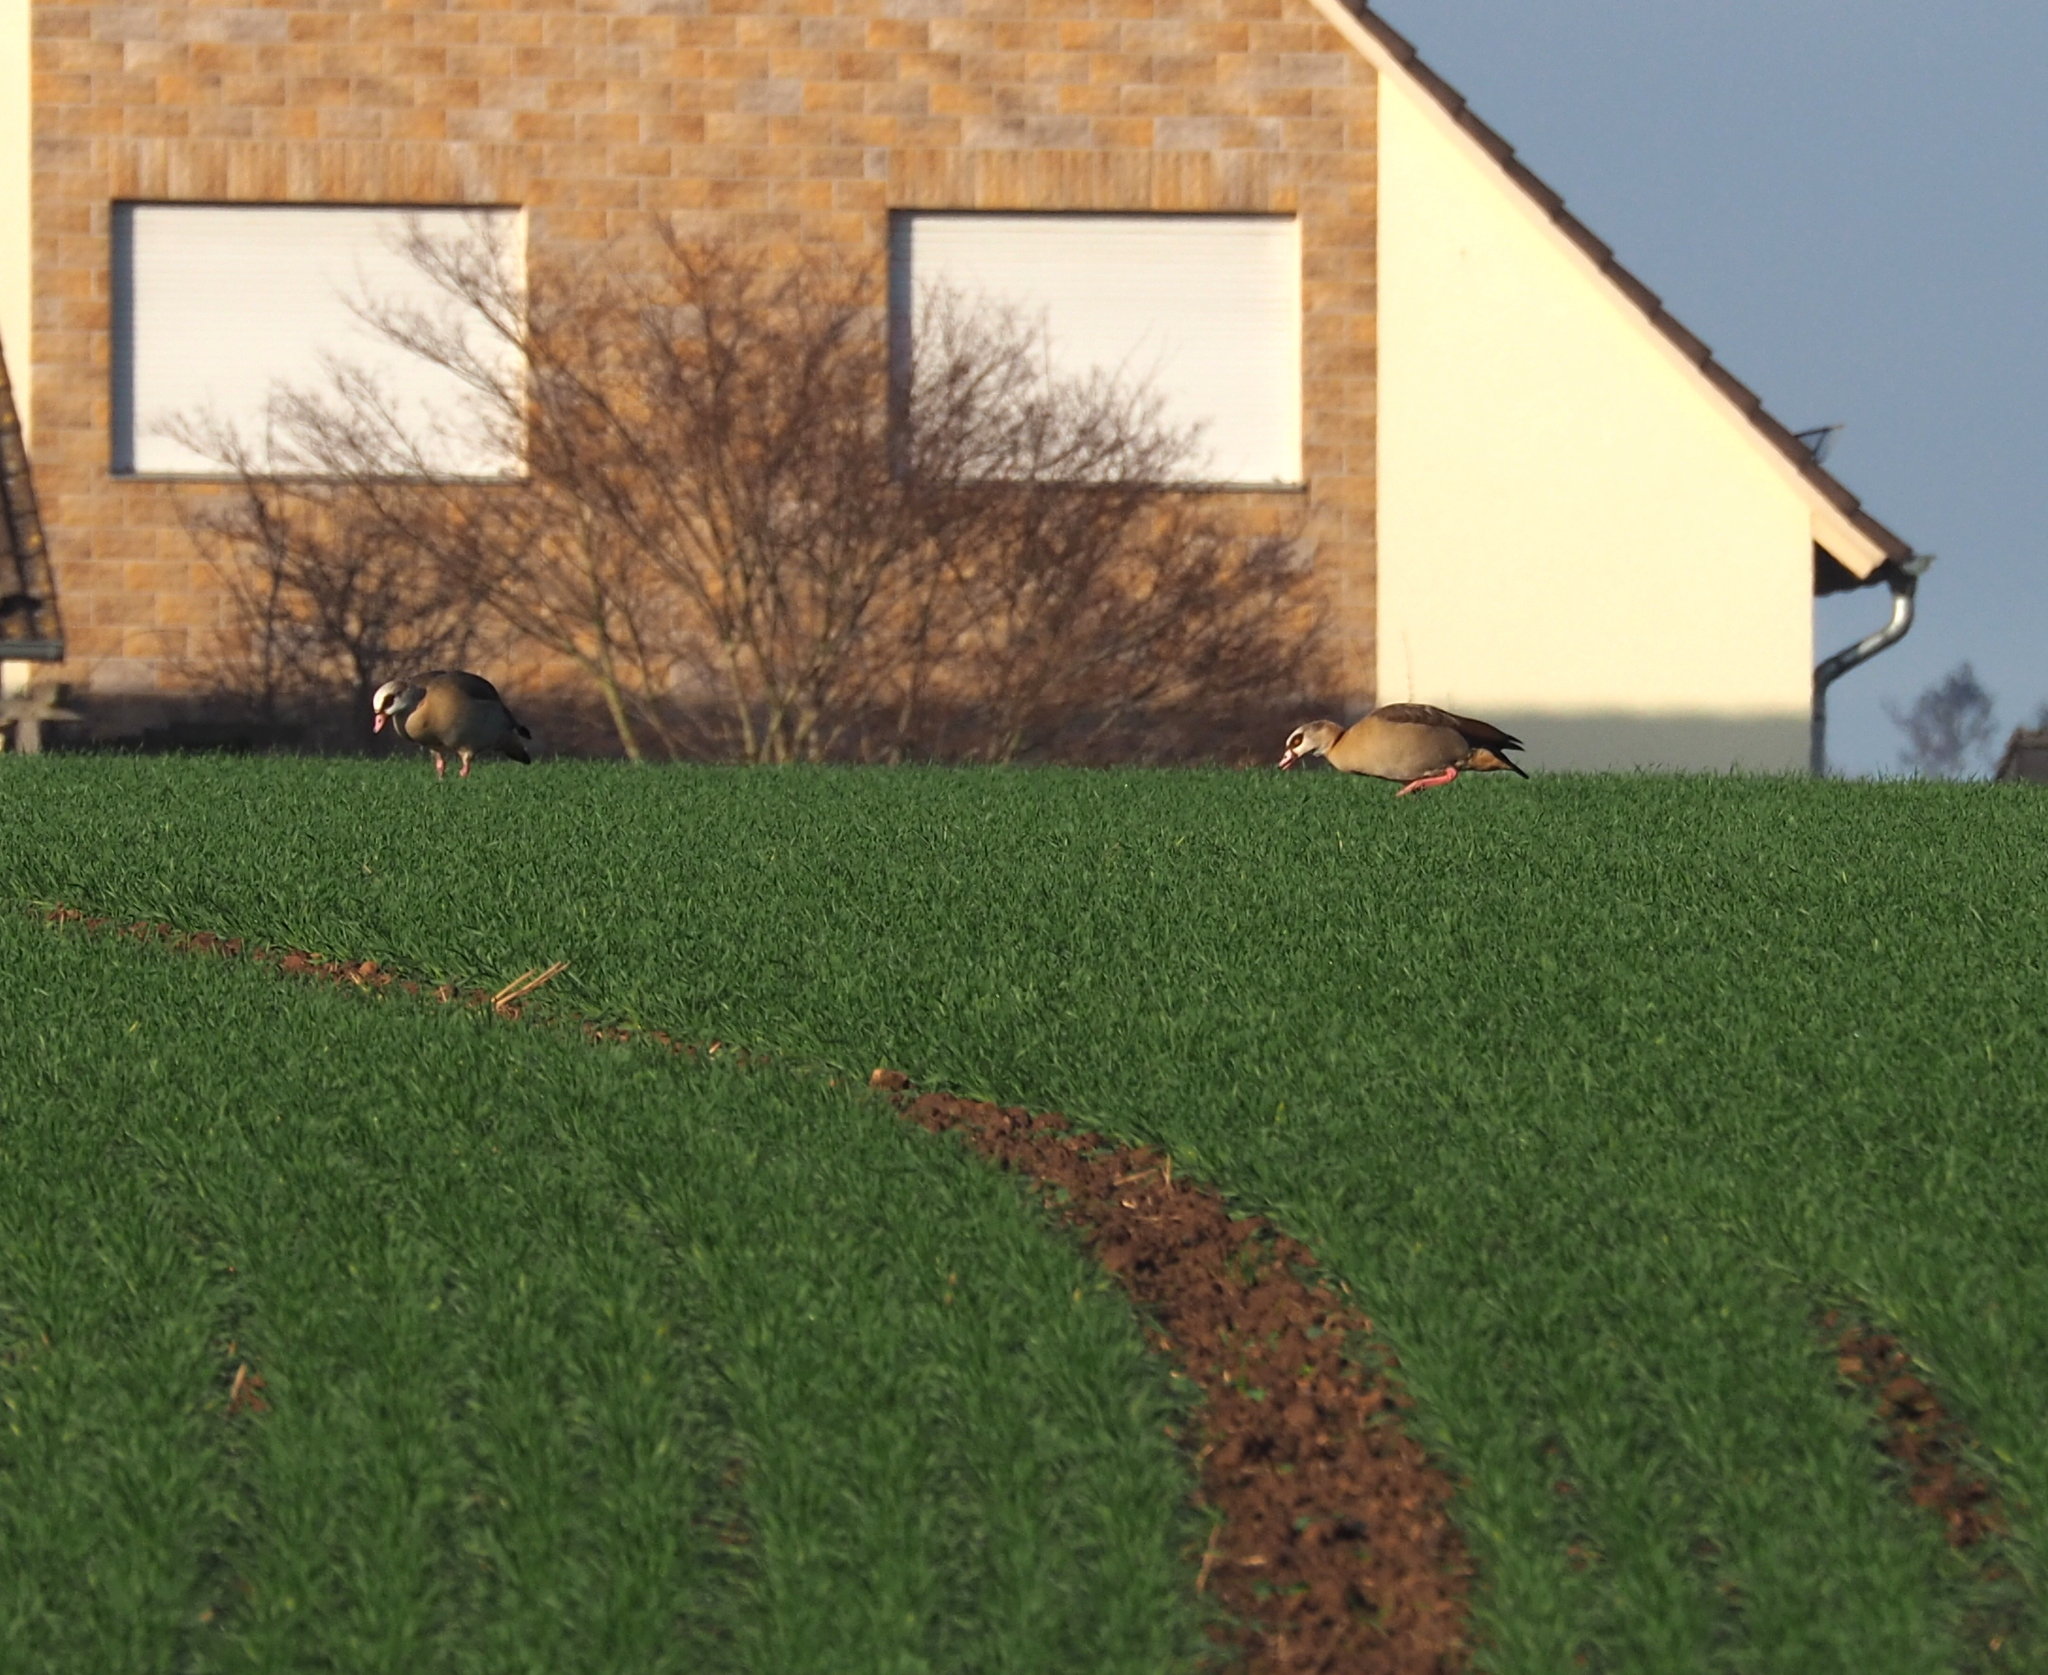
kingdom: Animalia
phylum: Chordata
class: Aves
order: Anseriformes
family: Anatidae
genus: Alopochen
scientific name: Alopochen aegyptiaca
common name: Egyptian goose
